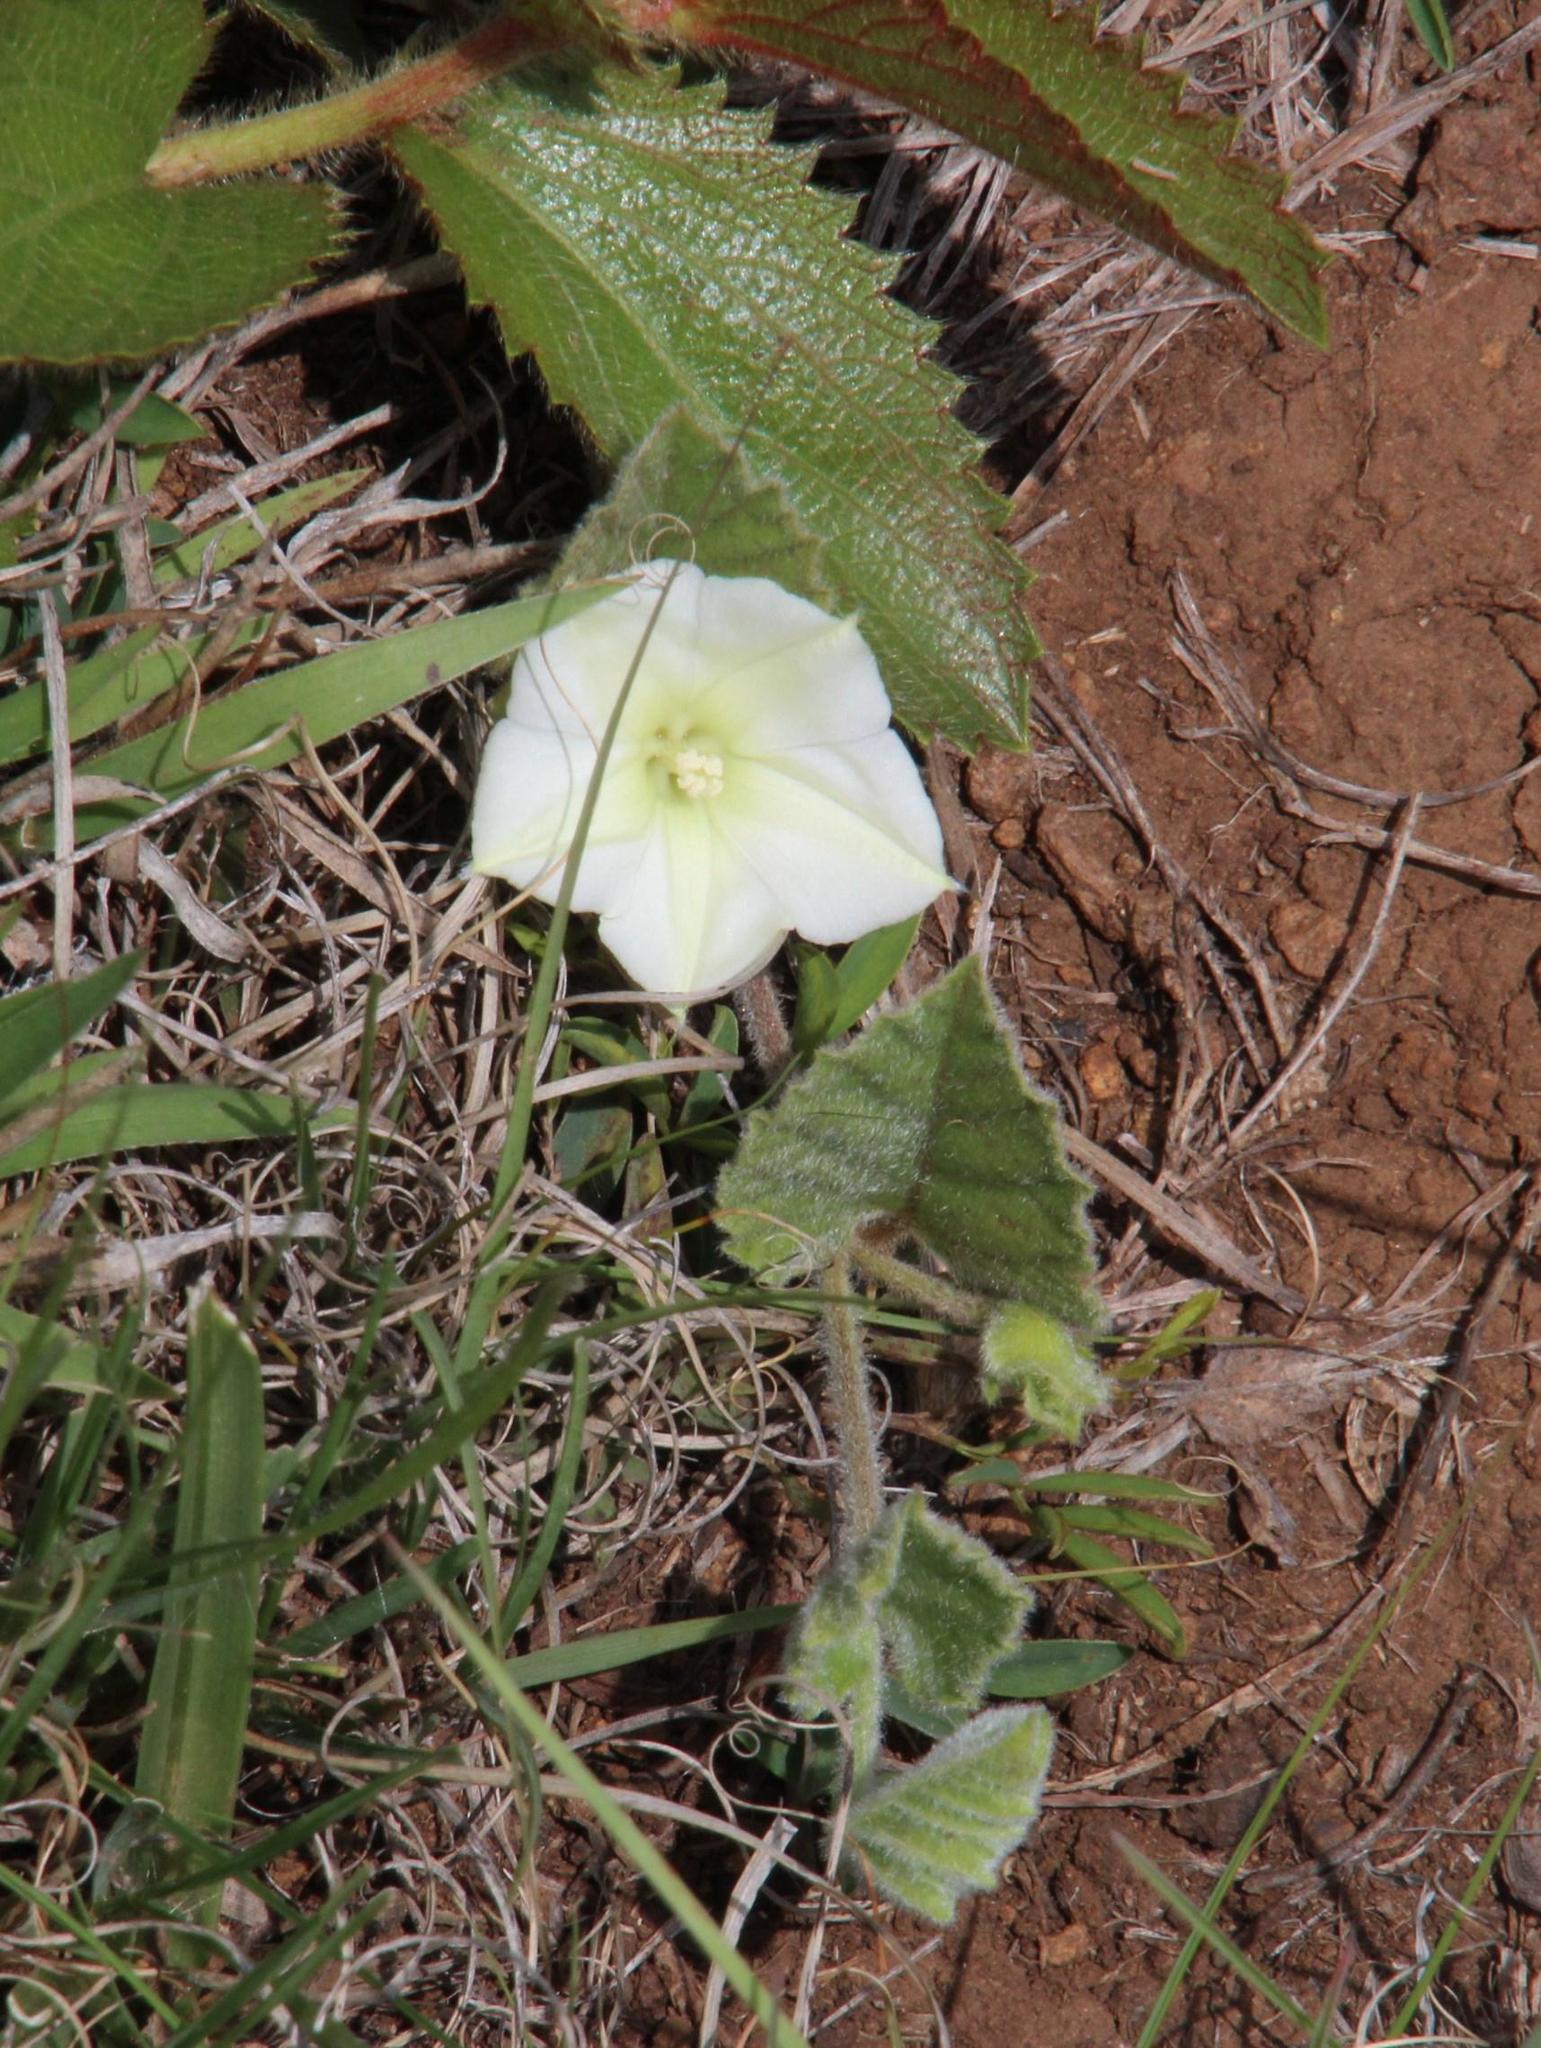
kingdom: Plantae
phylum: Tracheophyta
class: Magnoliopsida
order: Solanales
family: Convolvulaceae
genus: Convolvulus
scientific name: Convolvulus natalensis
